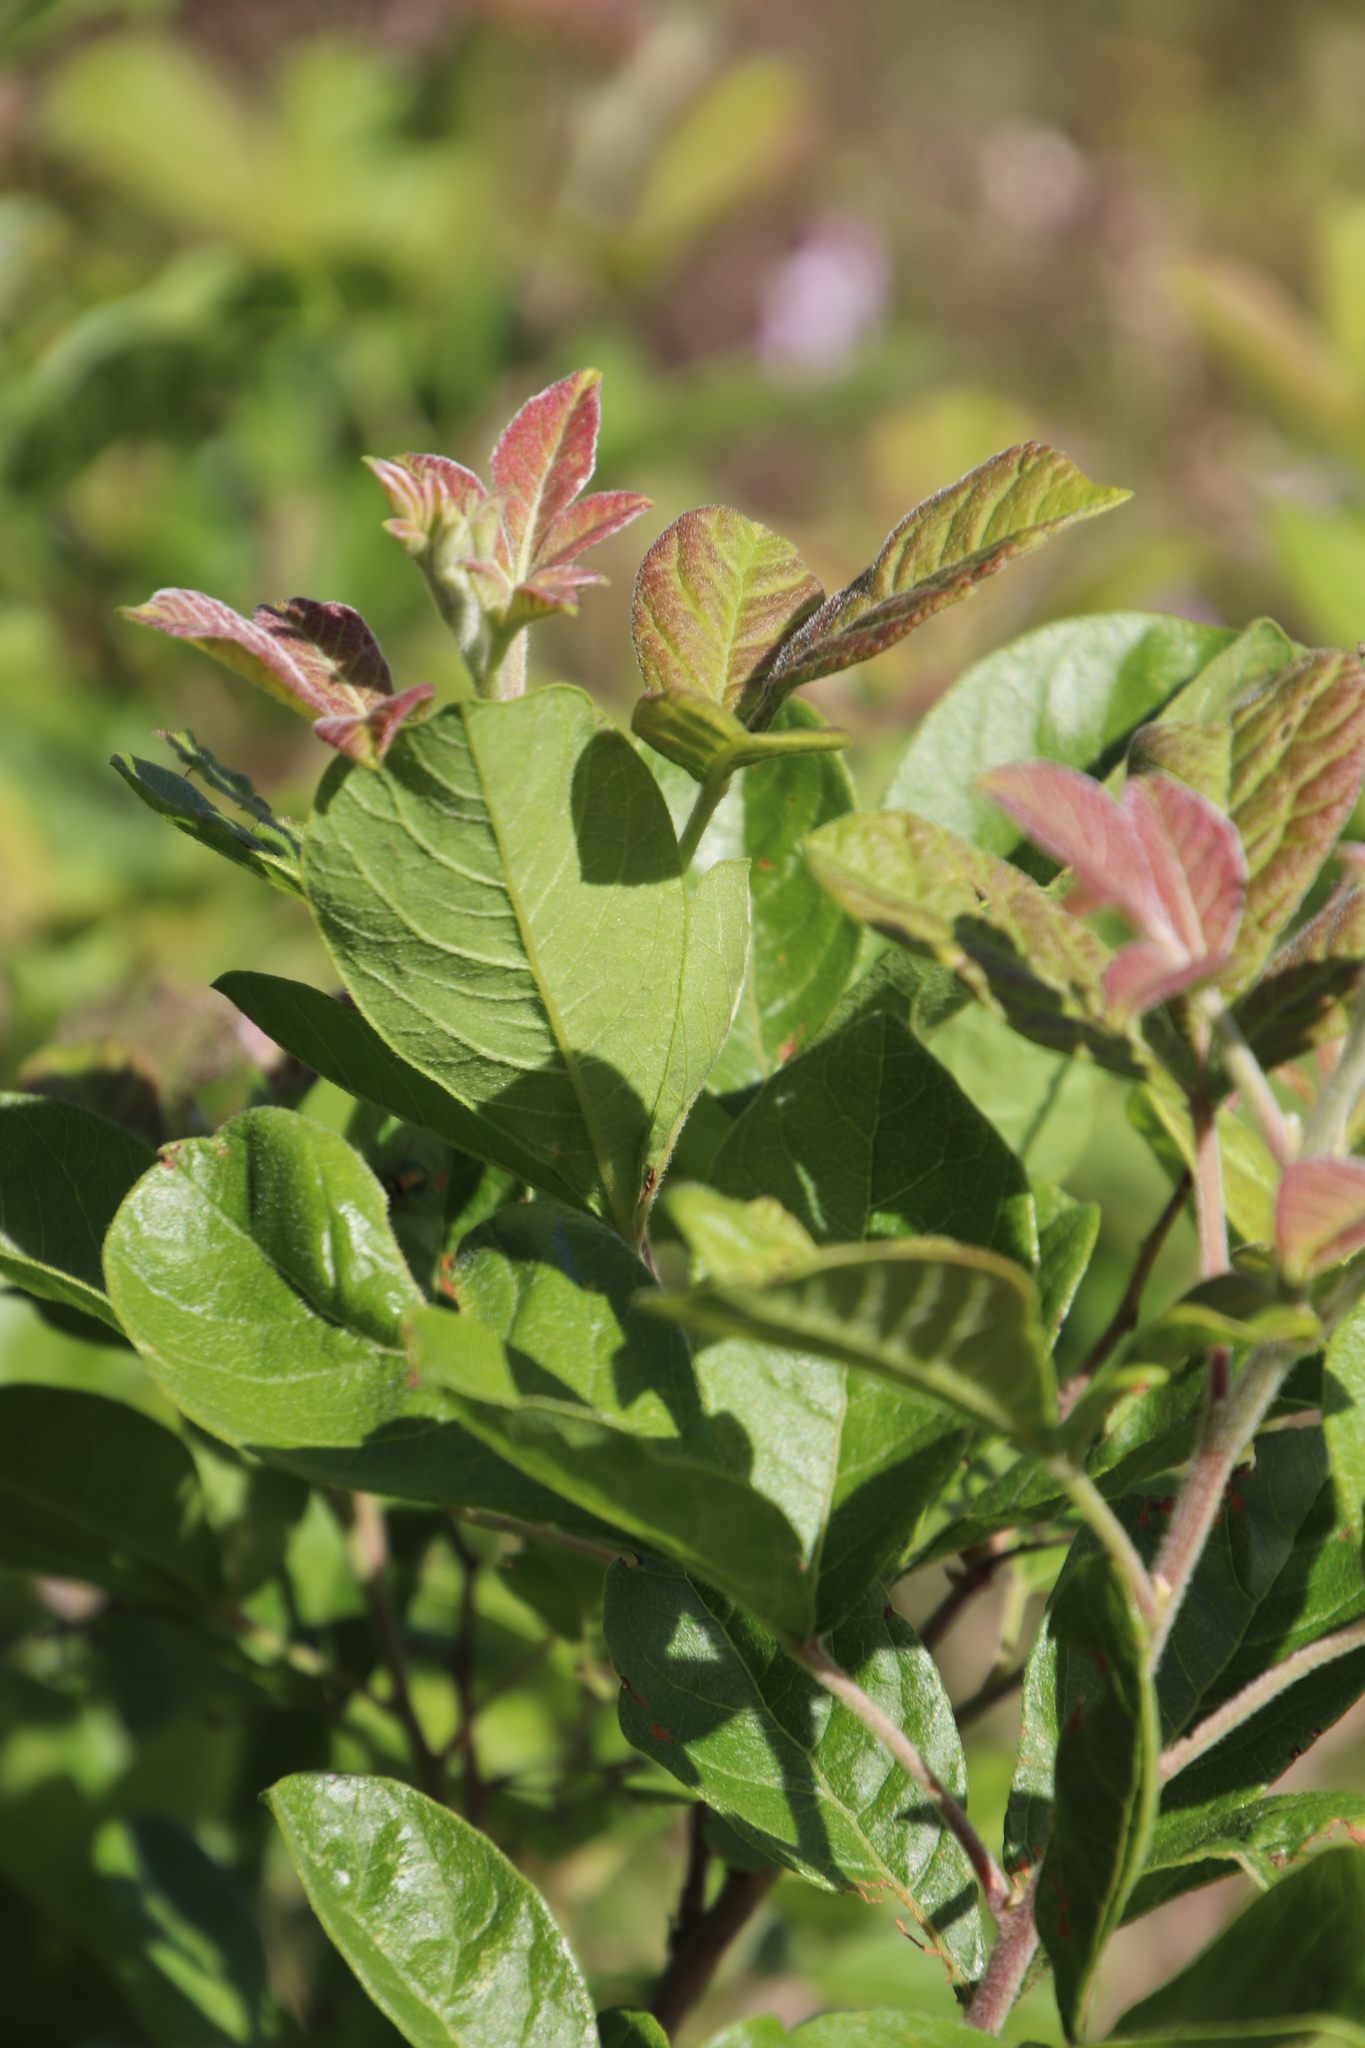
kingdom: Plantae
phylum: Tracheophyta
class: Magnoliopsida
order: Sapindales
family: Anacardiaceae
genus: Searsia
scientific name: Searsia rehmanniana
